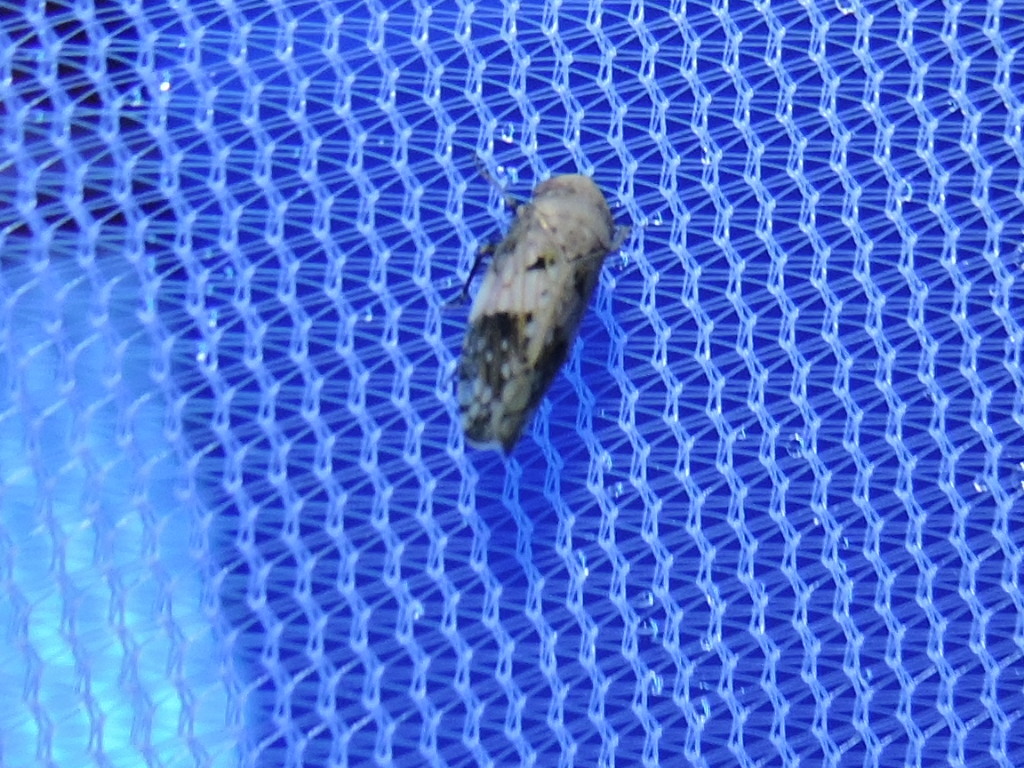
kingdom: Animalia
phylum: Arthropoda
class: Insecta
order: Hemiptera
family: Cicadellidae
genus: Menosoma
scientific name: Menosoma cinctum
